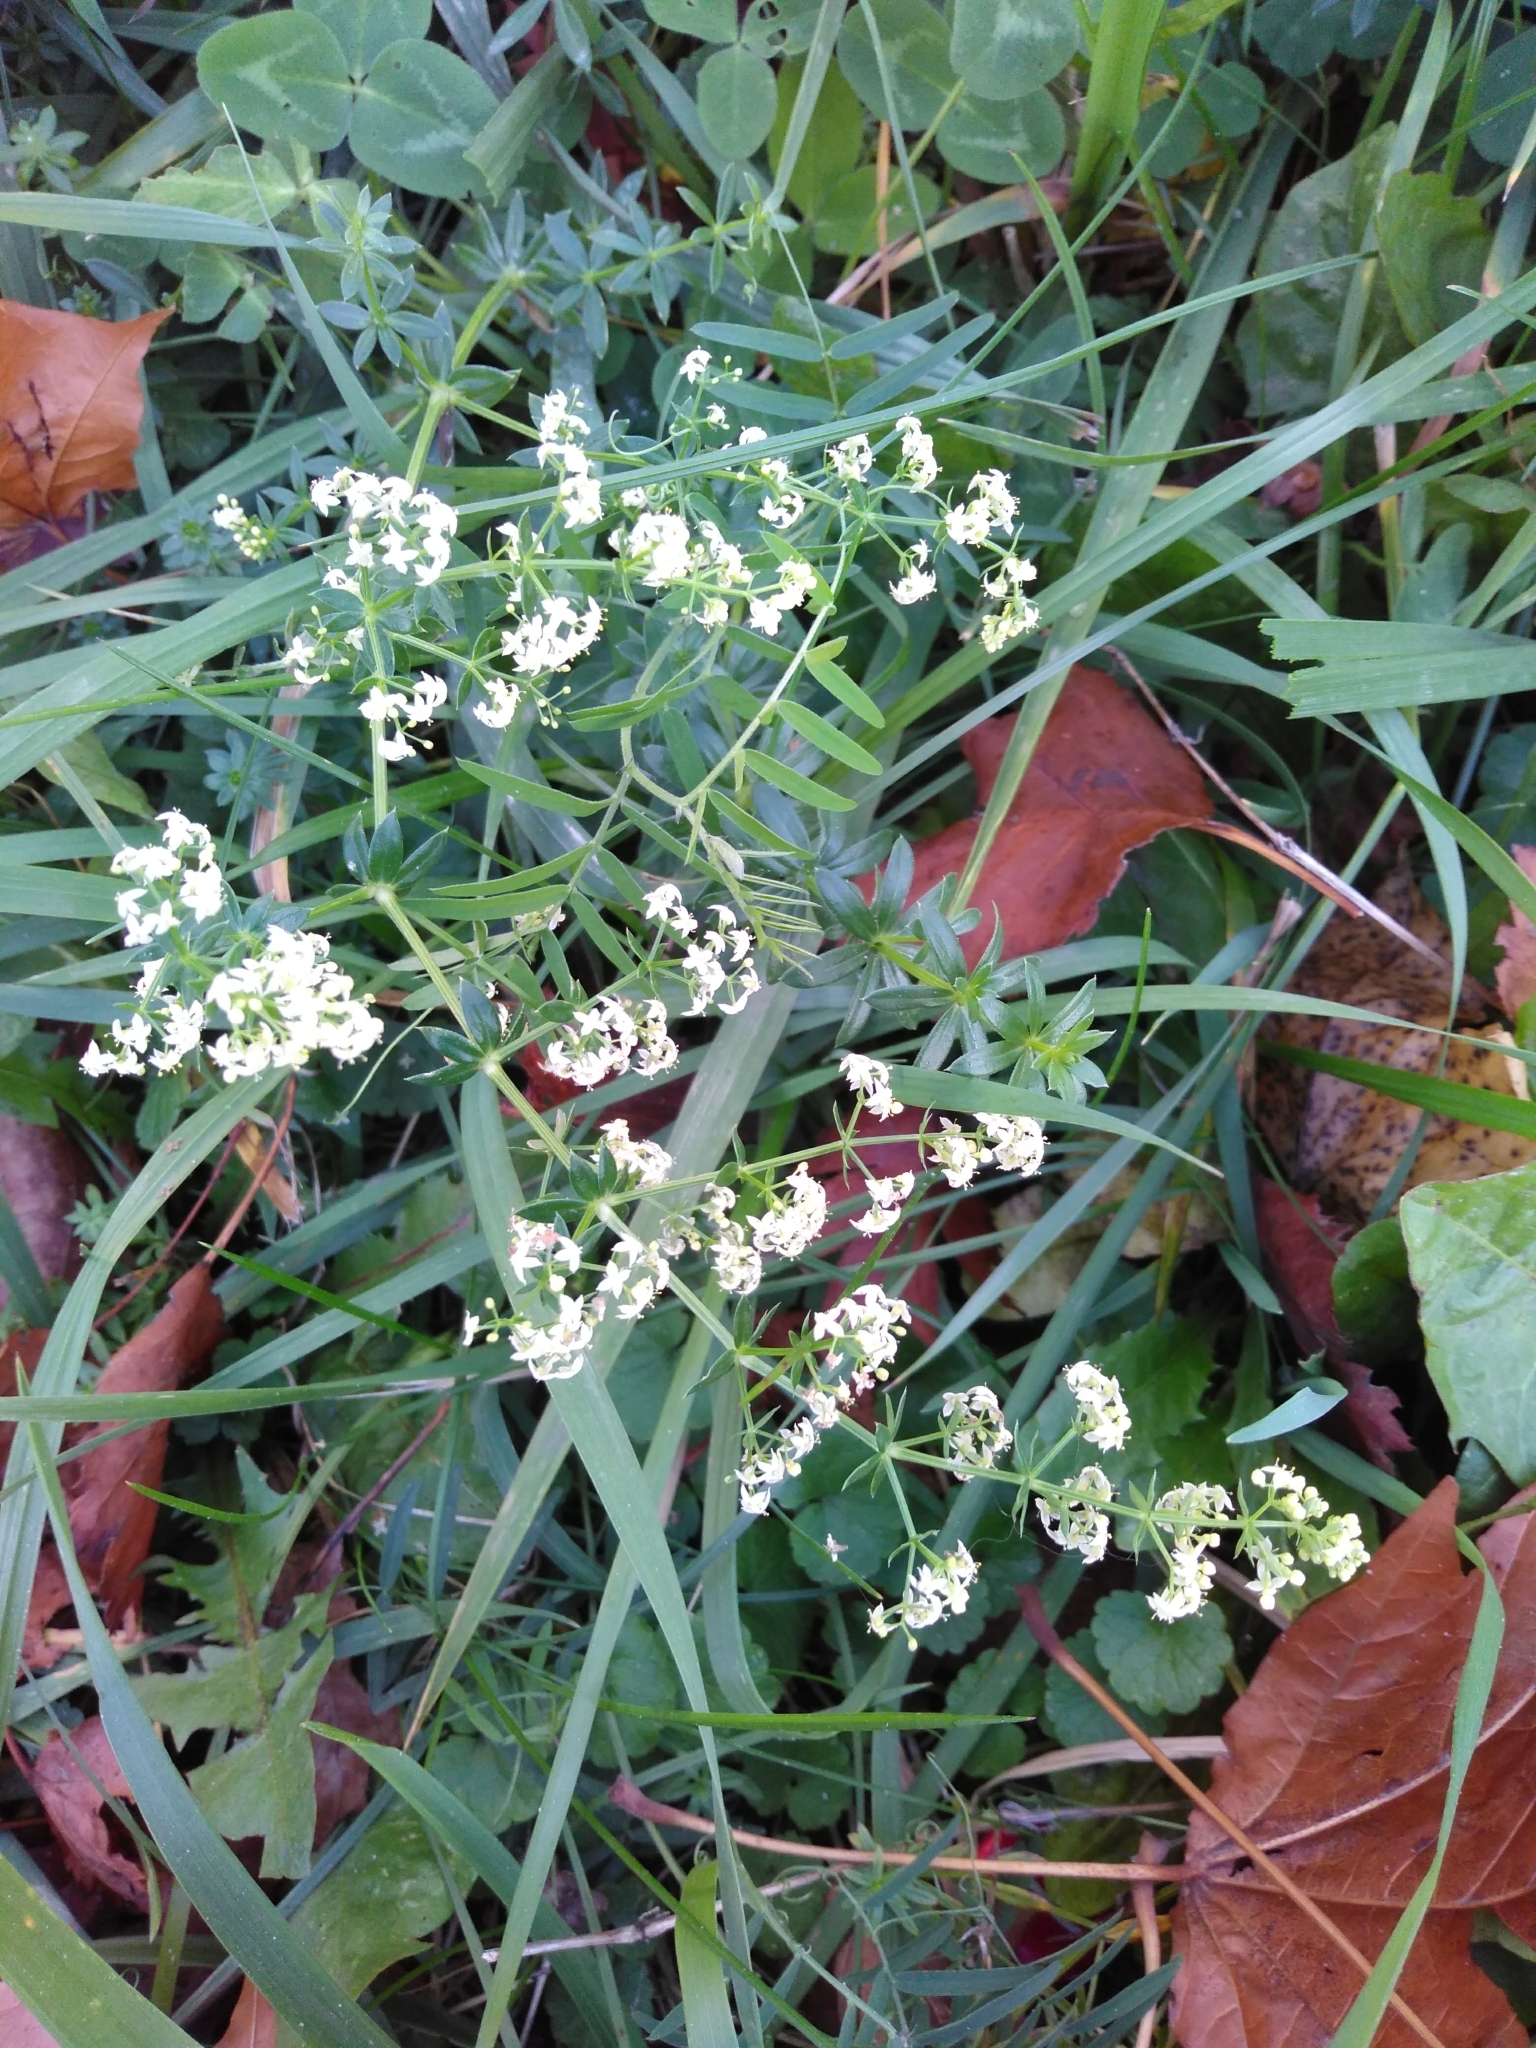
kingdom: Plantae
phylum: Tracheophyta
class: Magnoliopsida
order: Gentianales
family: Rubiaceae
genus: Galium
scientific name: Galium mollugo
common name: Hedge bedstraw
